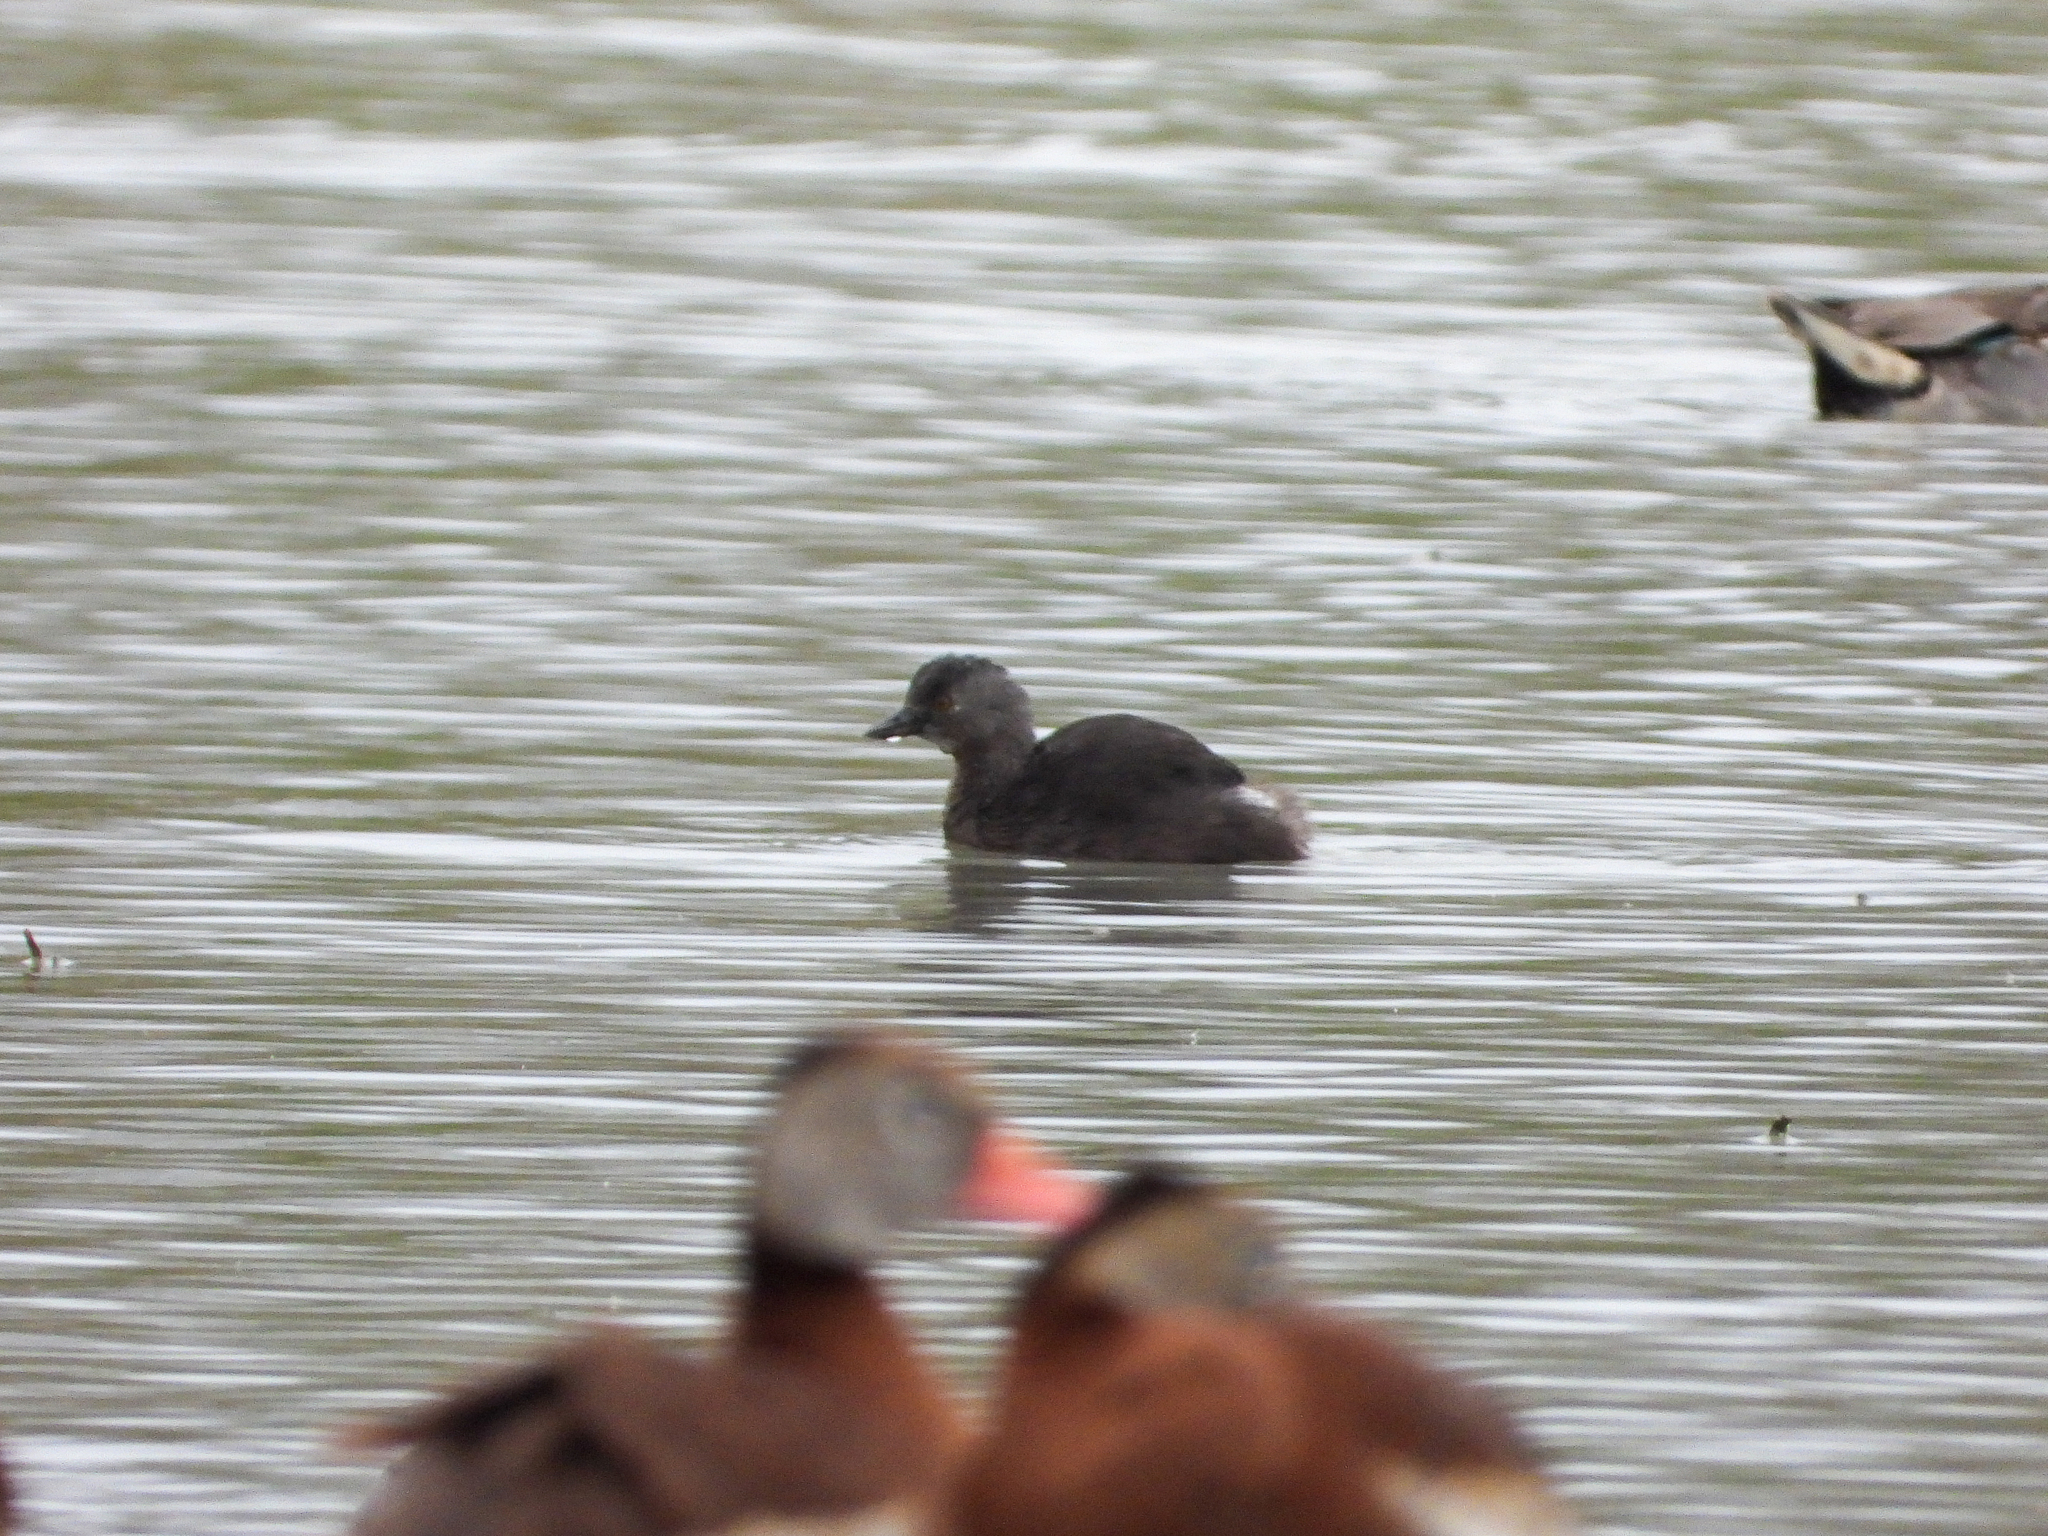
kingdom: Animalia
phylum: Chordata
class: Aves
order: Podicipediformes
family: Podicipedidae
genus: Tachybaptus
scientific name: Tachybaptus dominicus
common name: Least grebe
